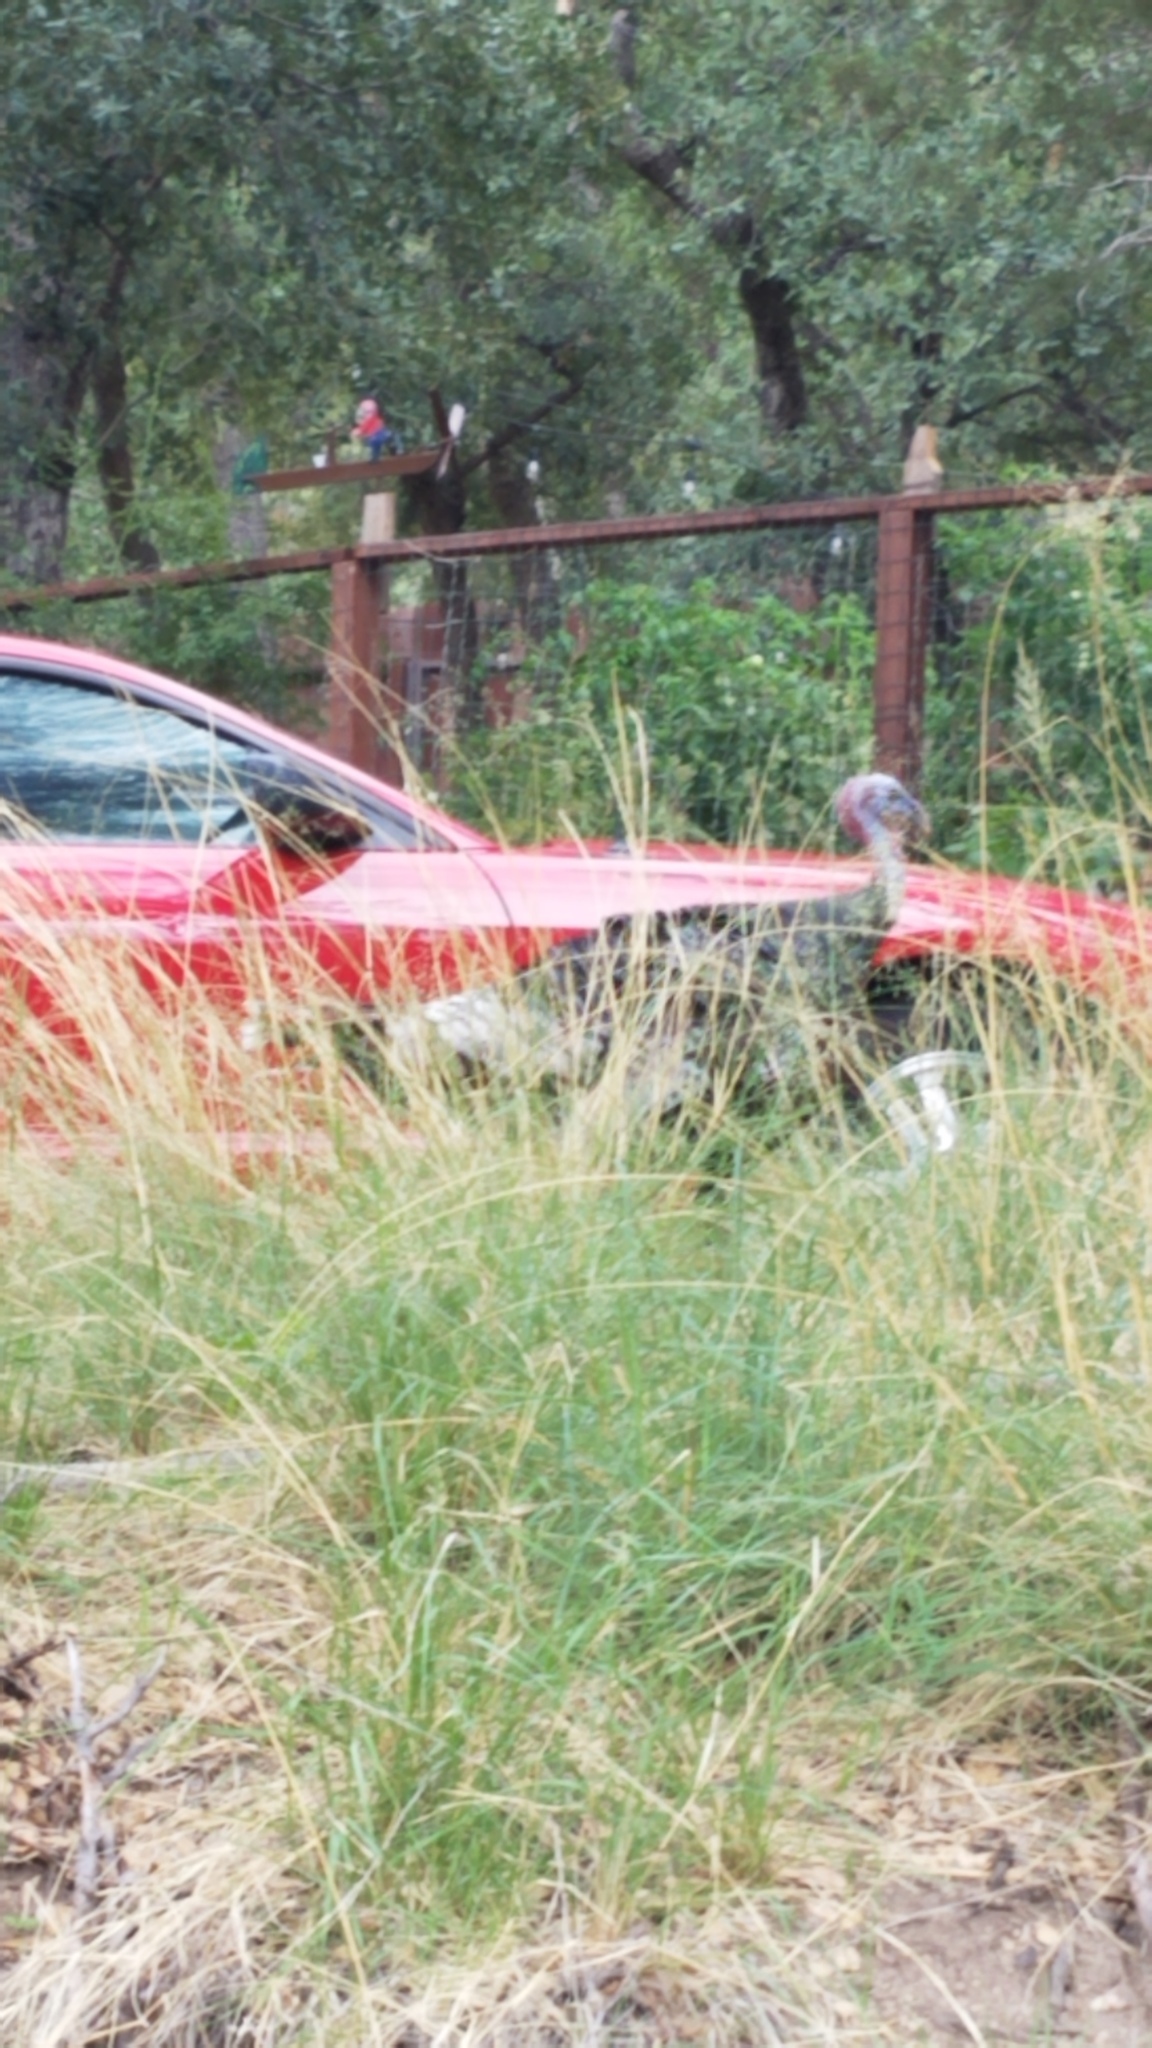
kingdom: Animalia
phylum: Chordata
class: Aves
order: Galliformes
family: Phasianidae
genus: Meleagris
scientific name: Meleagris gallopavo
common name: Wild turkey
